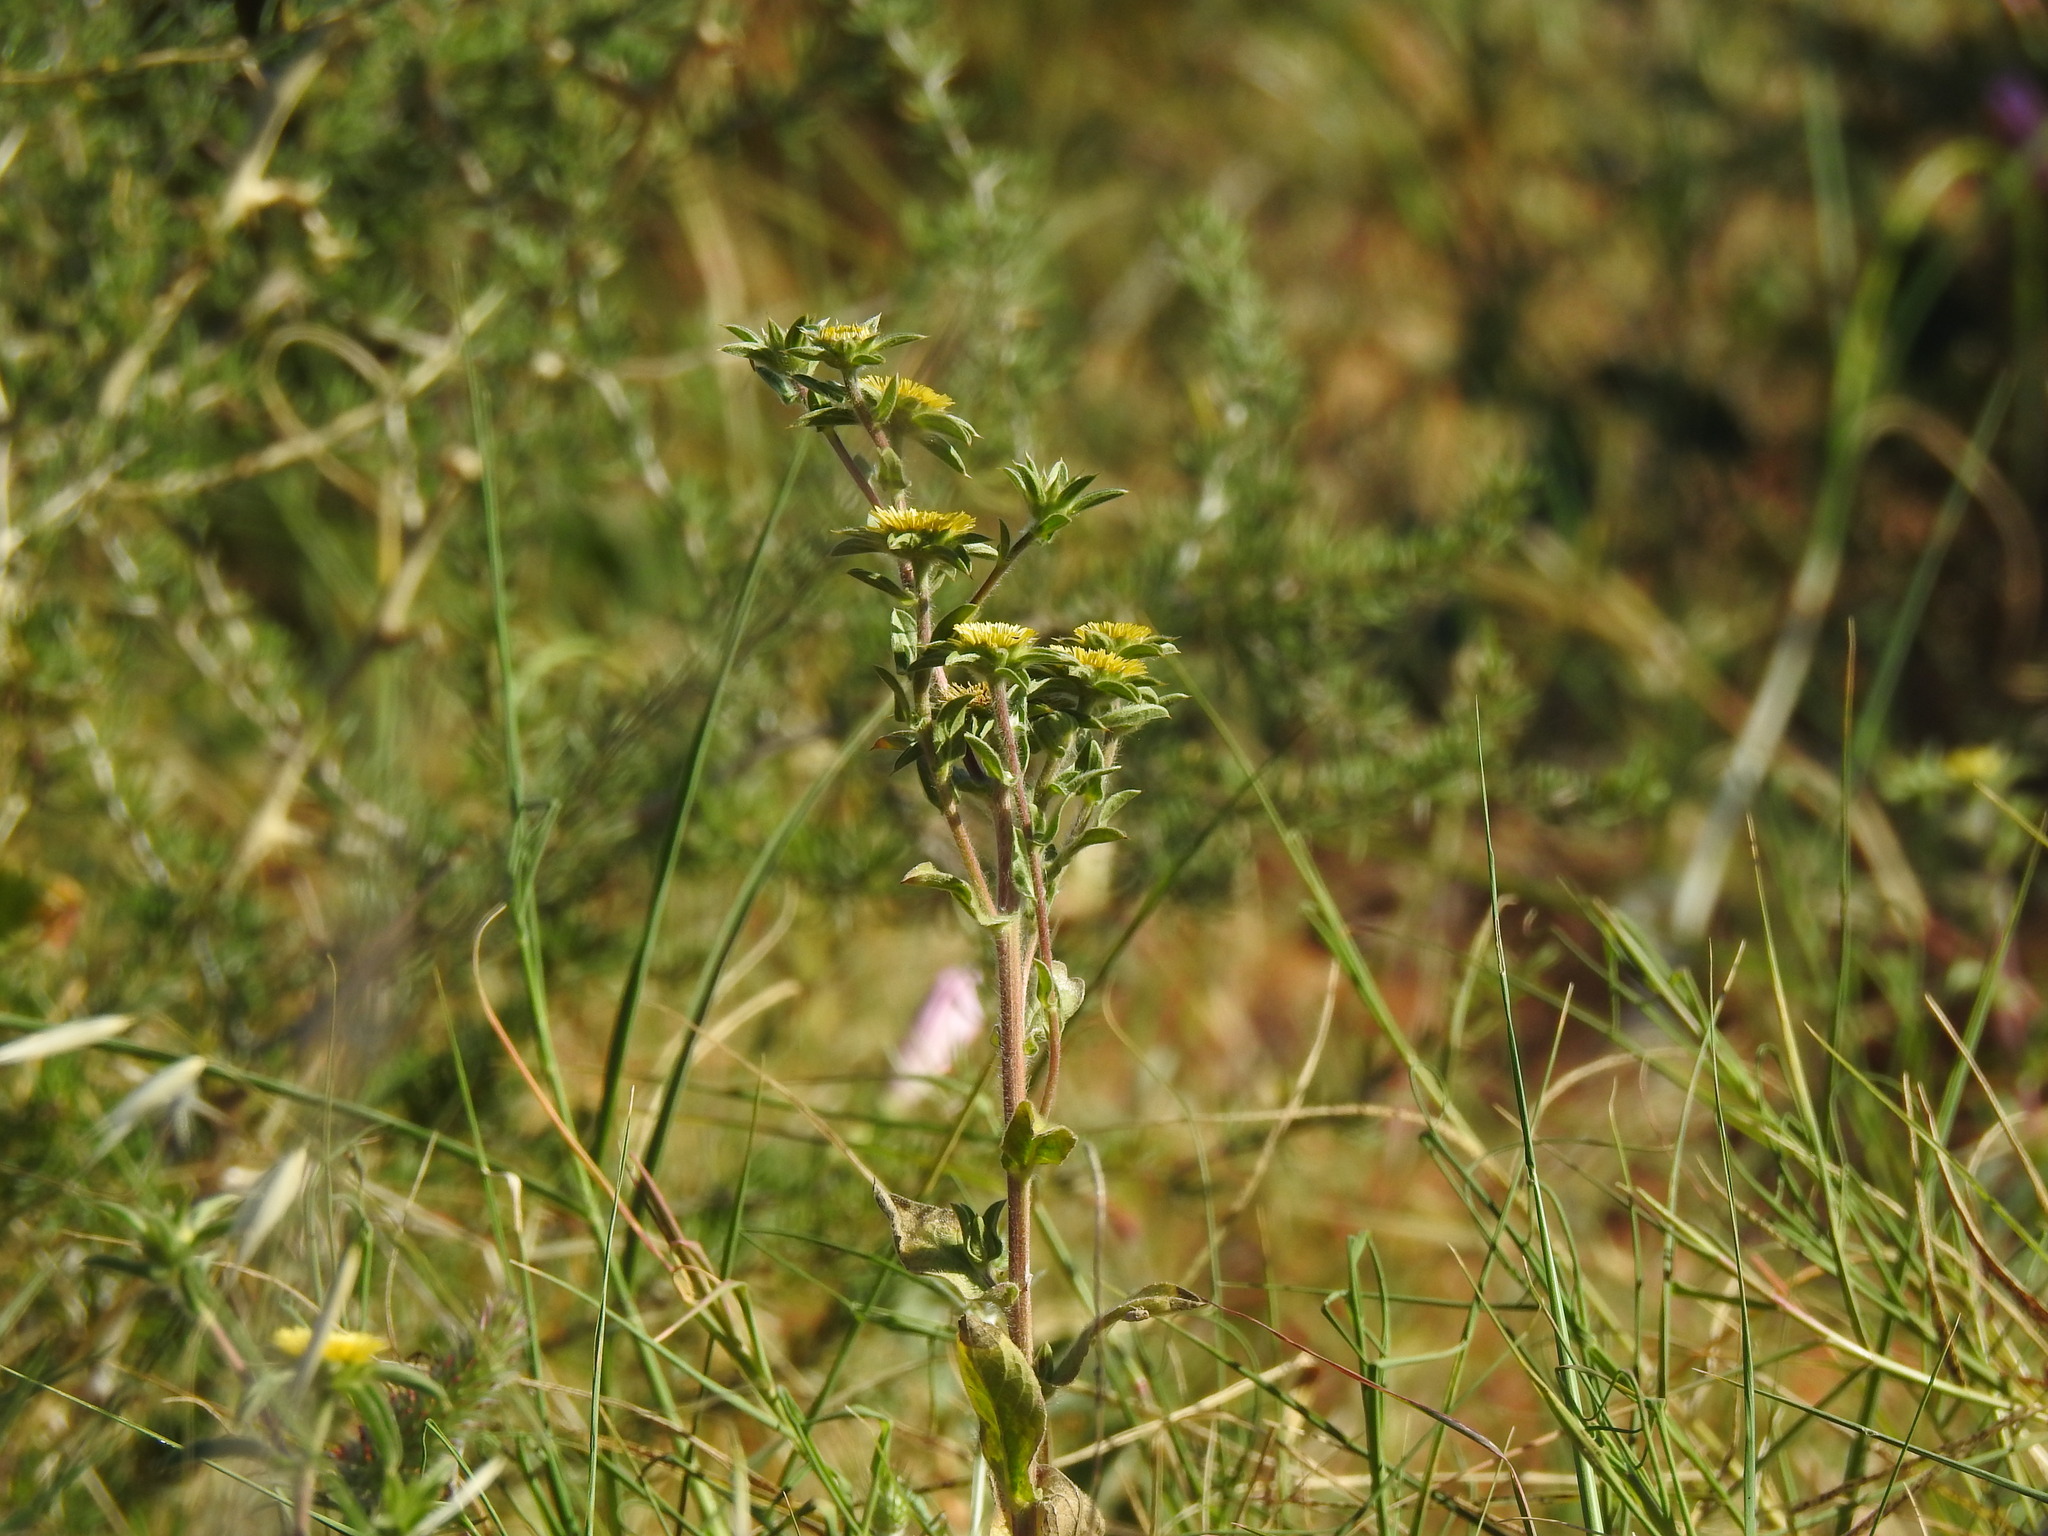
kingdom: Plantae
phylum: Tracheophyta
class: Magnoliopsida
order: Asterales
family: Asteraceae
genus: Pallenis
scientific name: Pallenis spinosa
